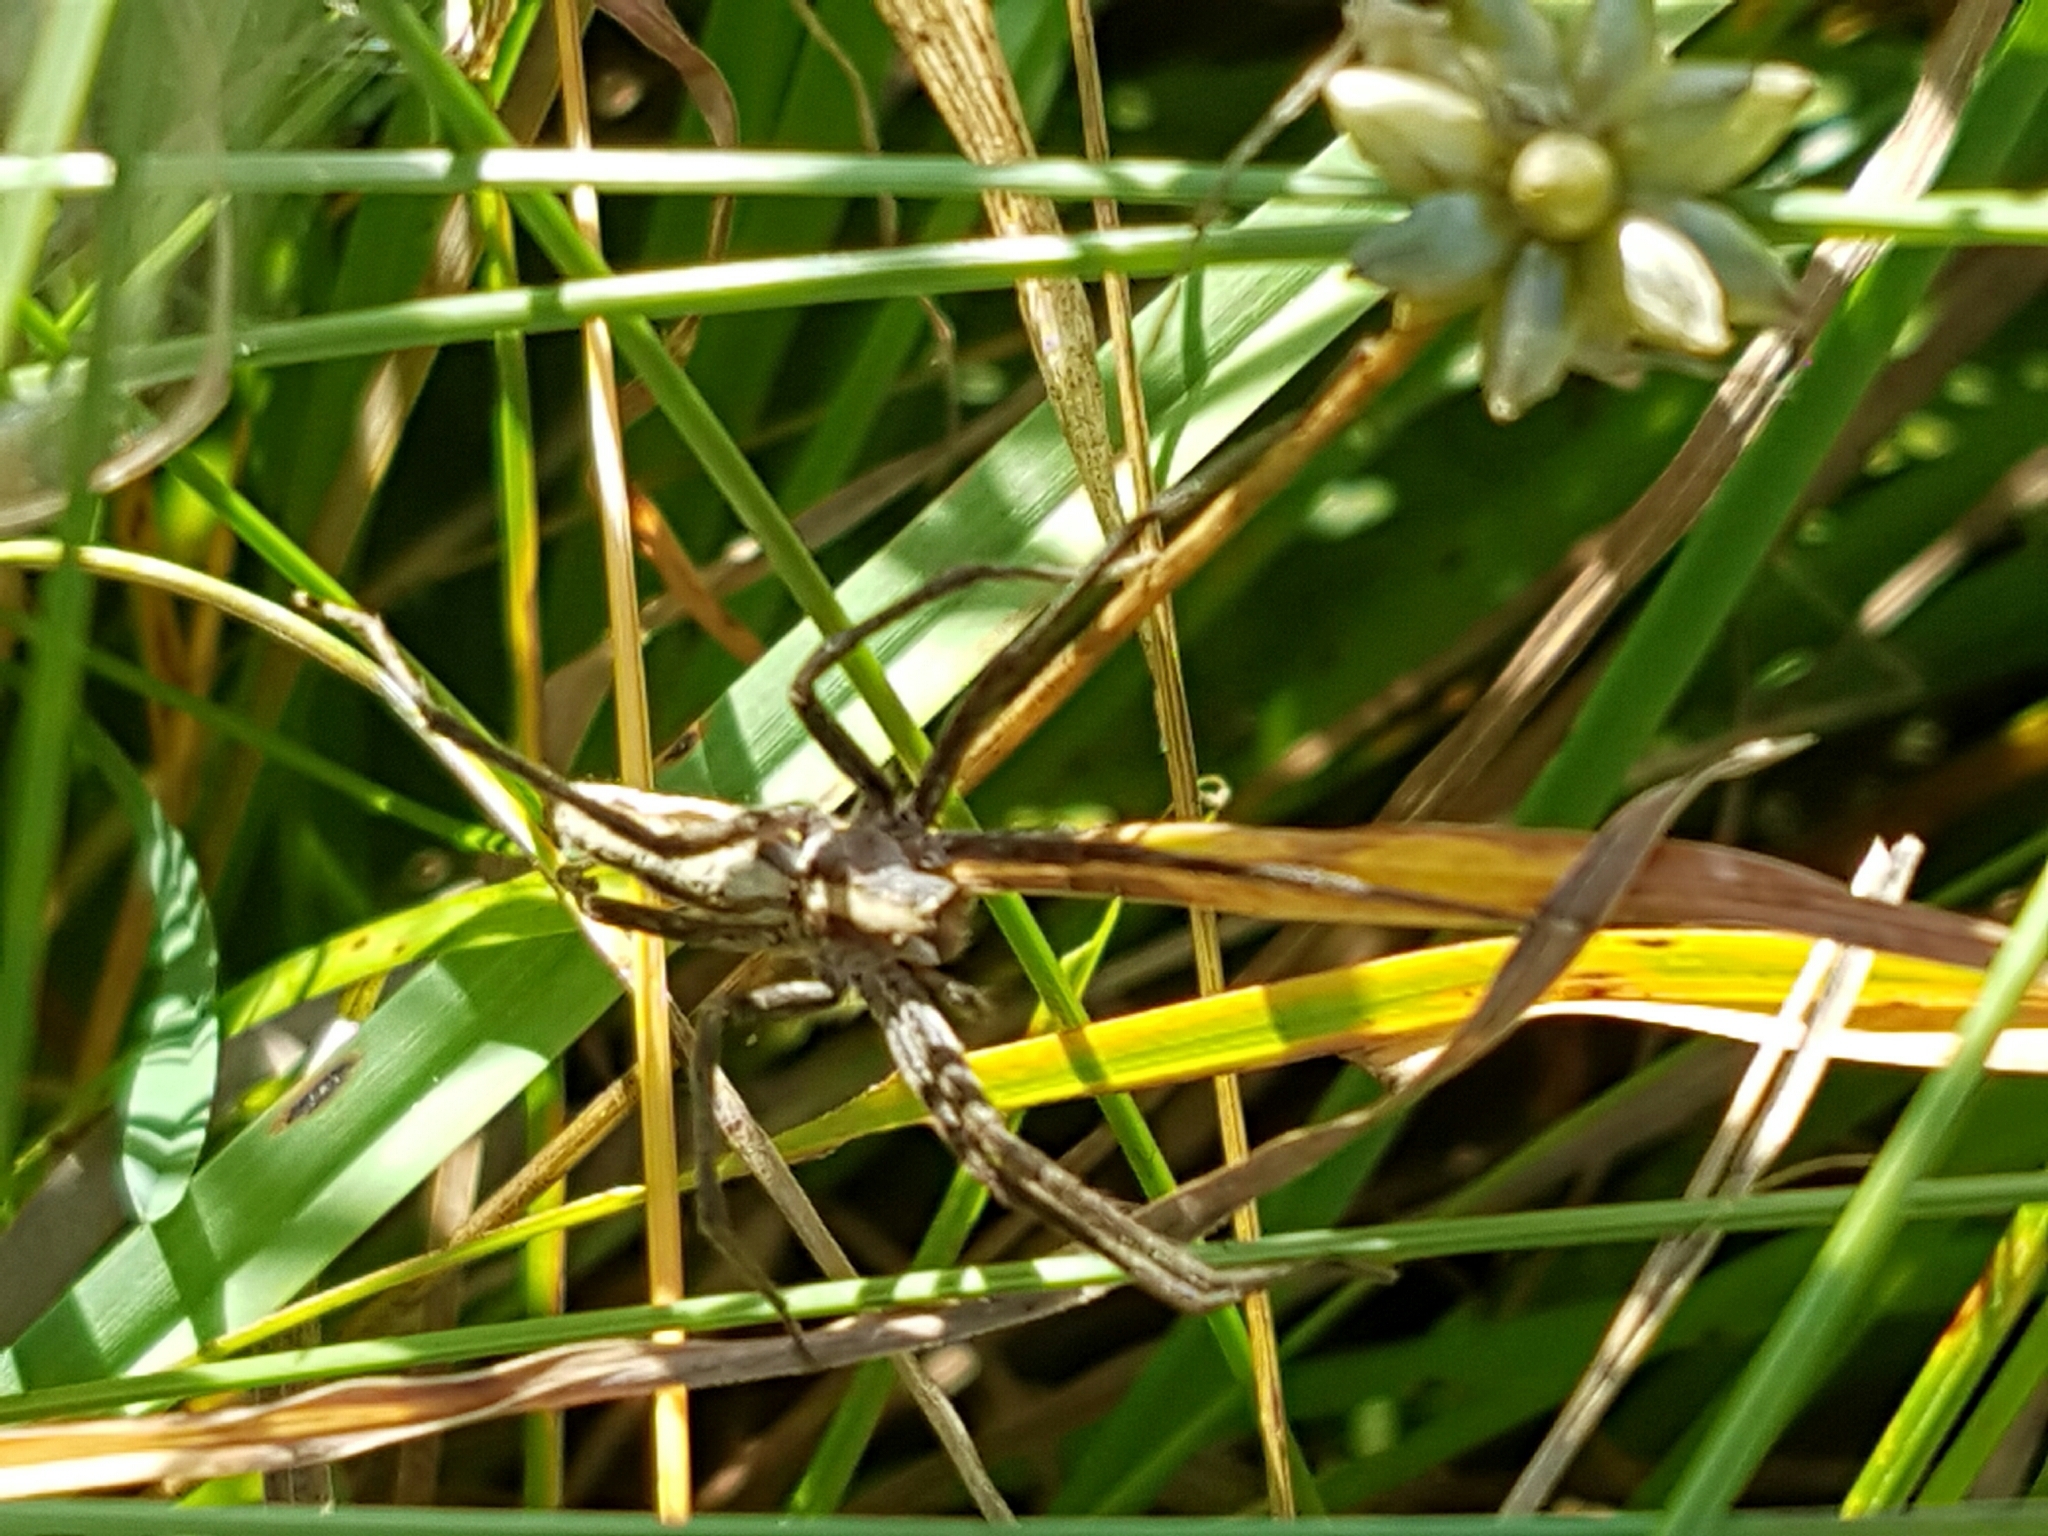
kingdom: Animalia
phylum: Arthropoda
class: Arachnida
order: Araneae
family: Pisauridae
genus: Pisaura
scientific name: Pisaura mirabilis
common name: Tent spider
